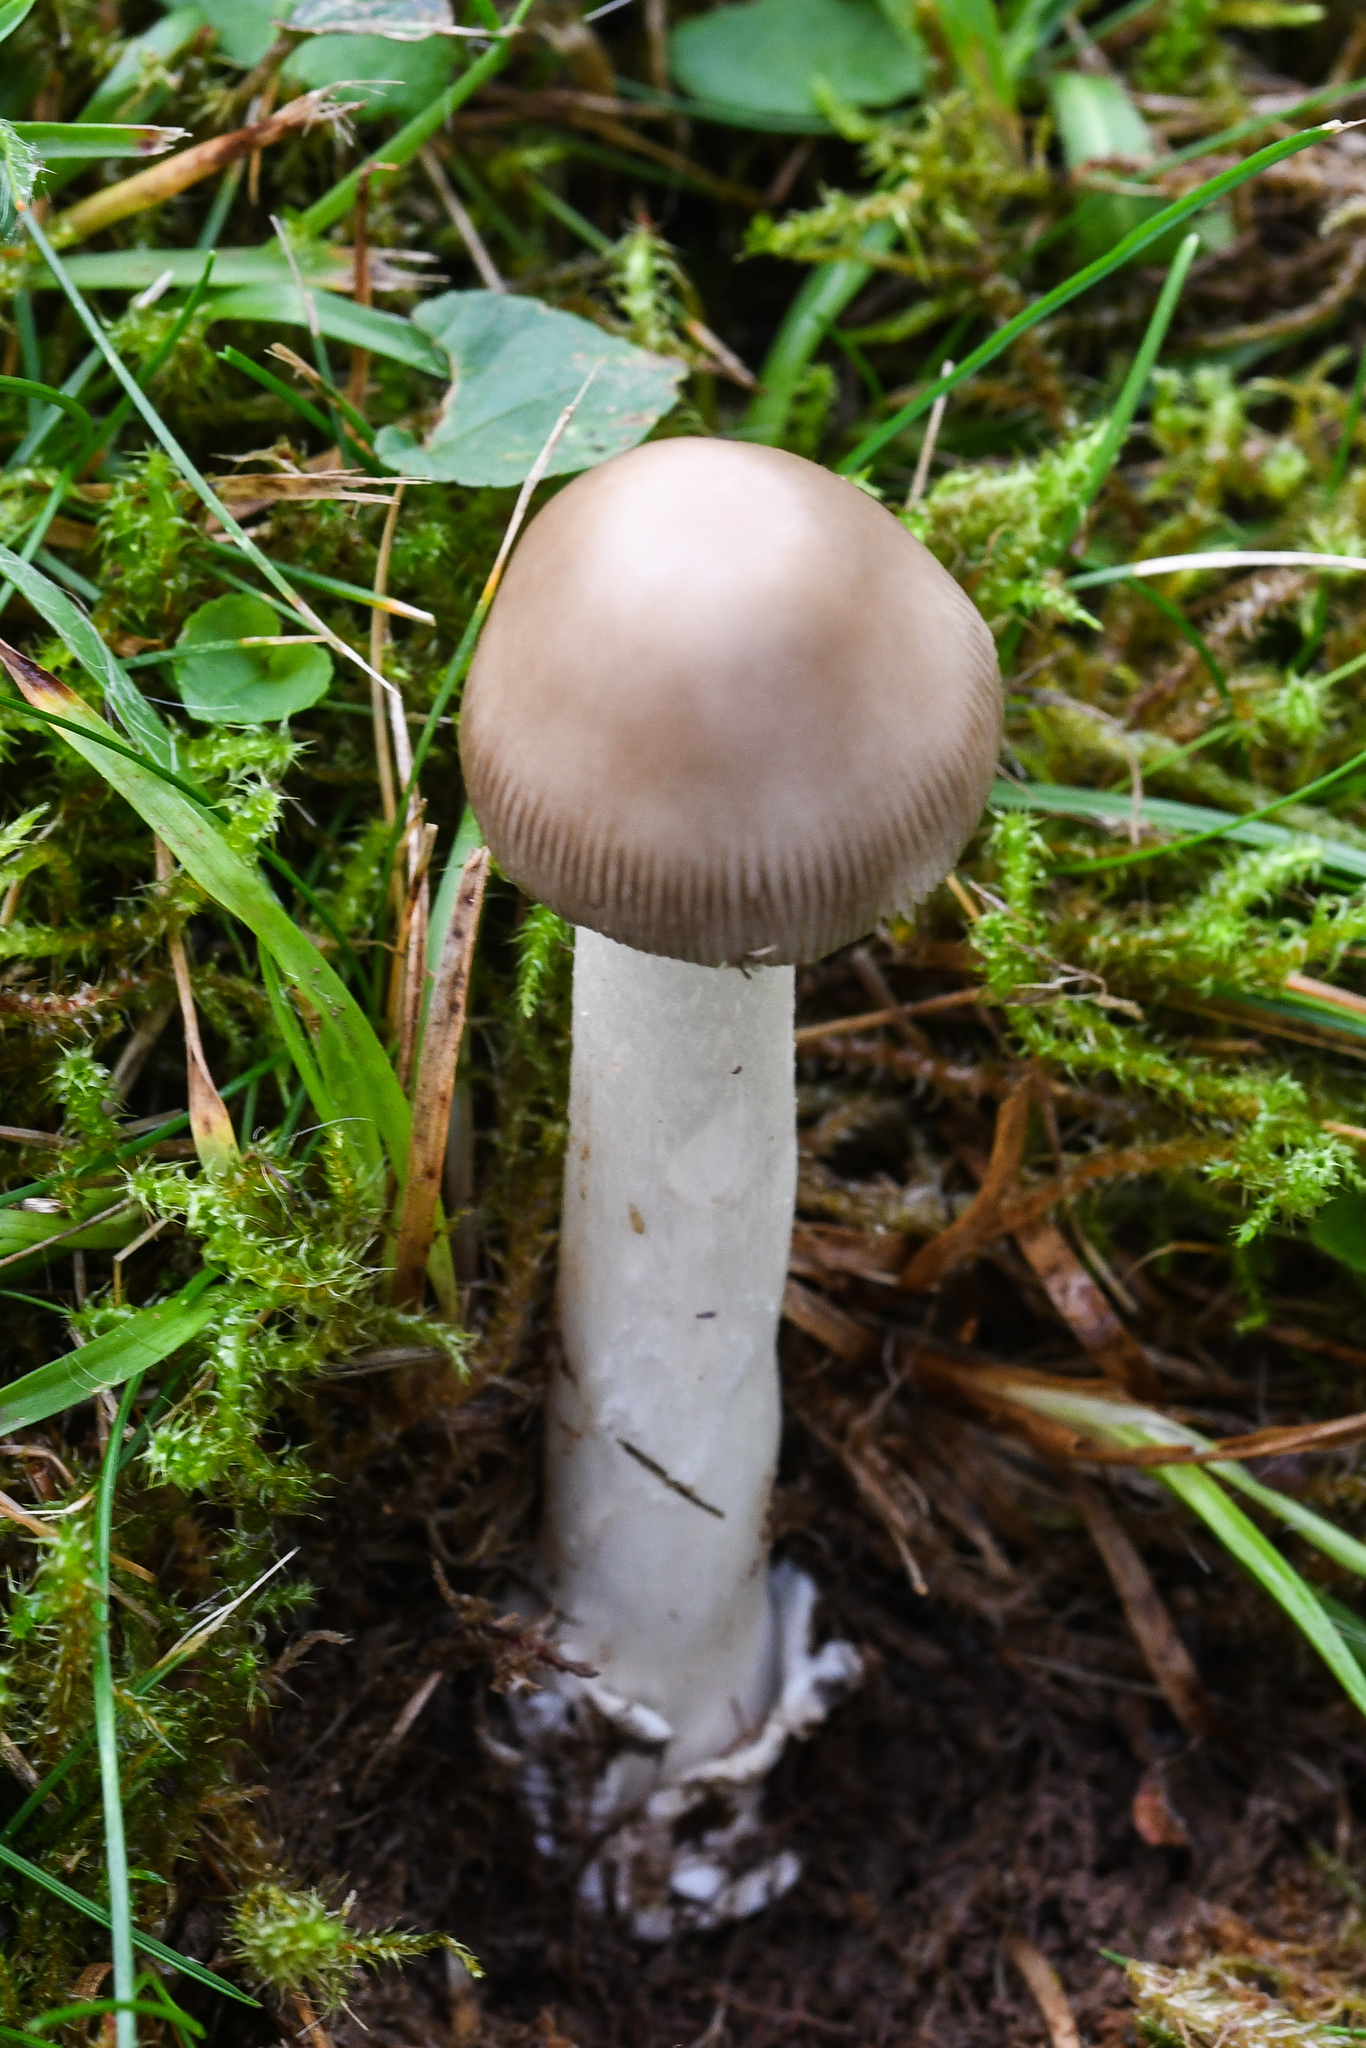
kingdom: Fungi
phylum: Basidiomycota
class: Agaricomycetes
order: Agaricales
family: Amanitaceae
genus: Amanita
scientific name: Amanita vaginata
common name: Grisette
